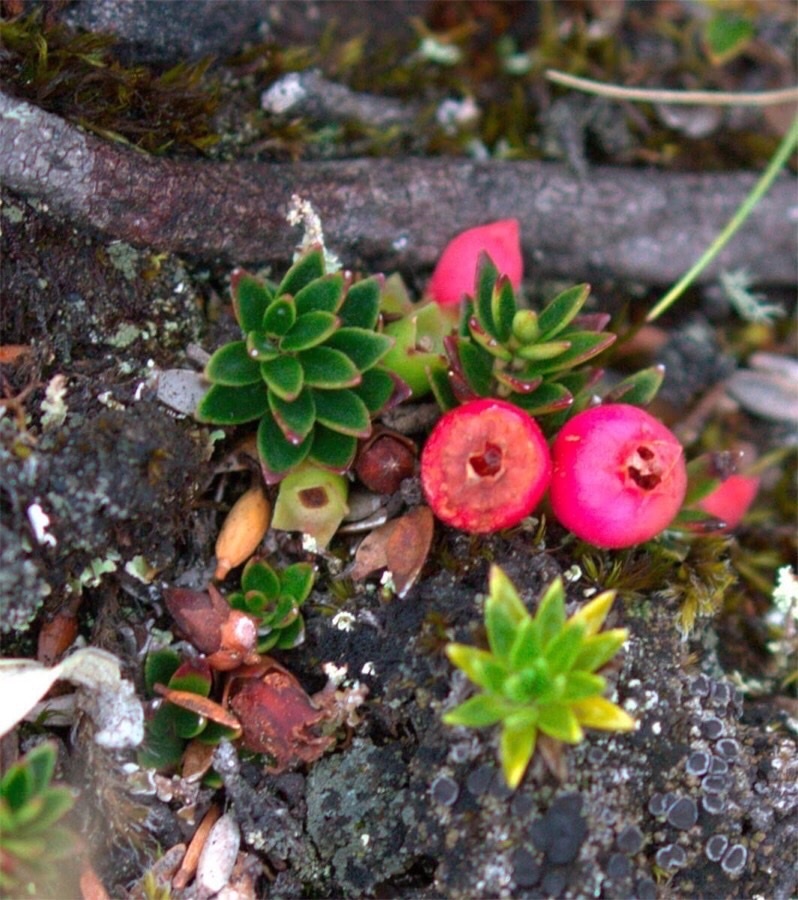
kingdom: Plantae
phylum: Tracheophyta
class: Magnoliopsida
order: Ericales
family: Ericaceae
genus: Disterigma
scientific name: Disterigma empetrifolium
